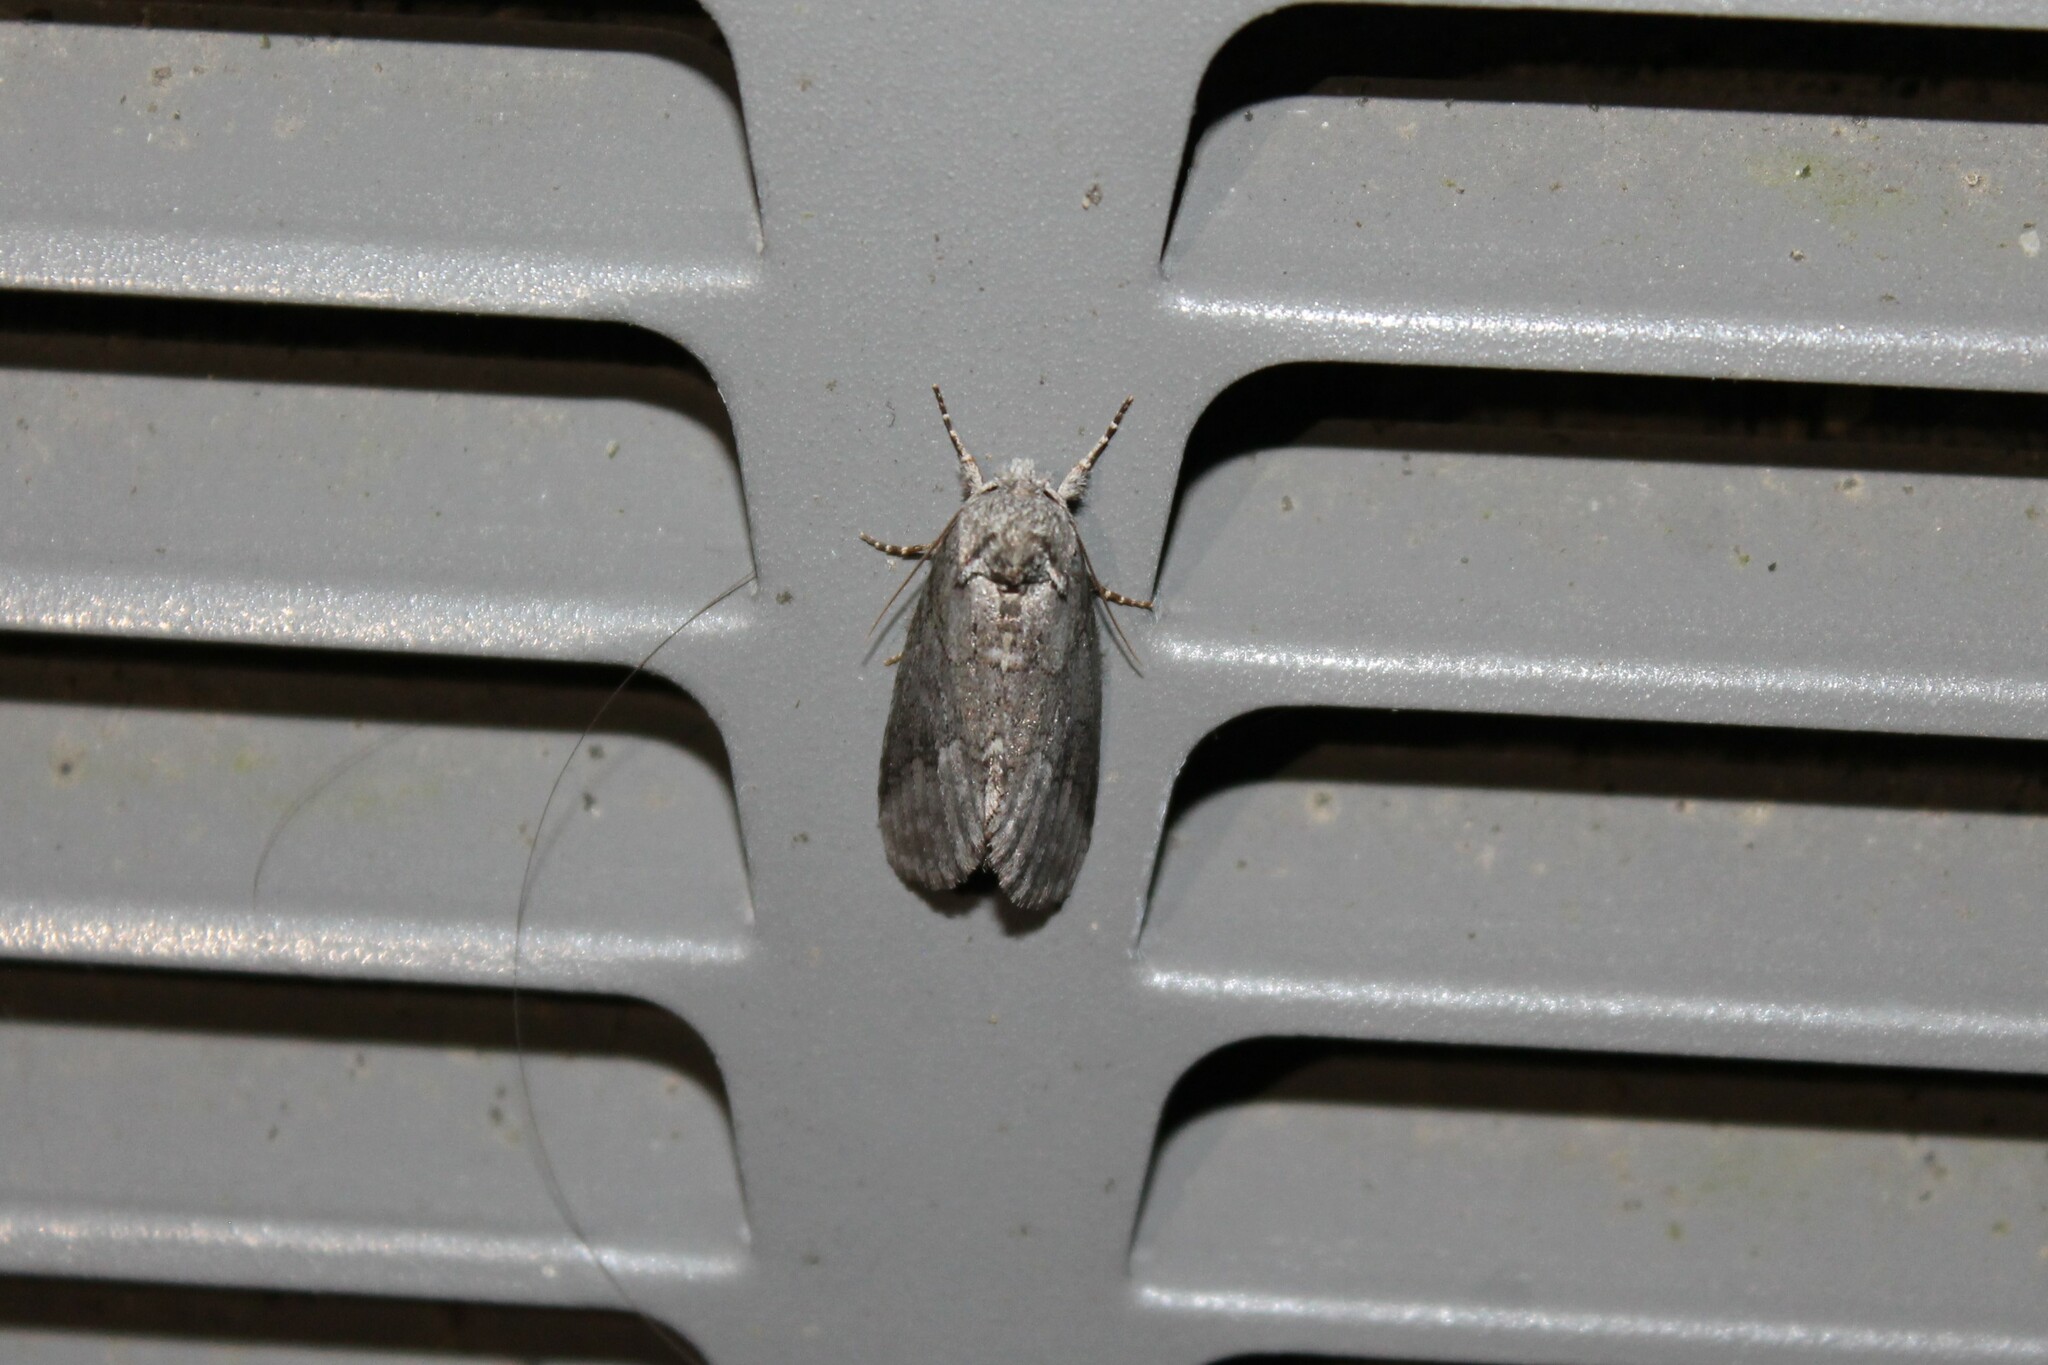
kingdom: Animalia
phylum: Arthropoda
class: Insecta
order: Lepidoptera
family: Notodontidae
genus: Lochmaeus
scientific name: Lochmaeus bilineata
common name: Double-lined prominent
